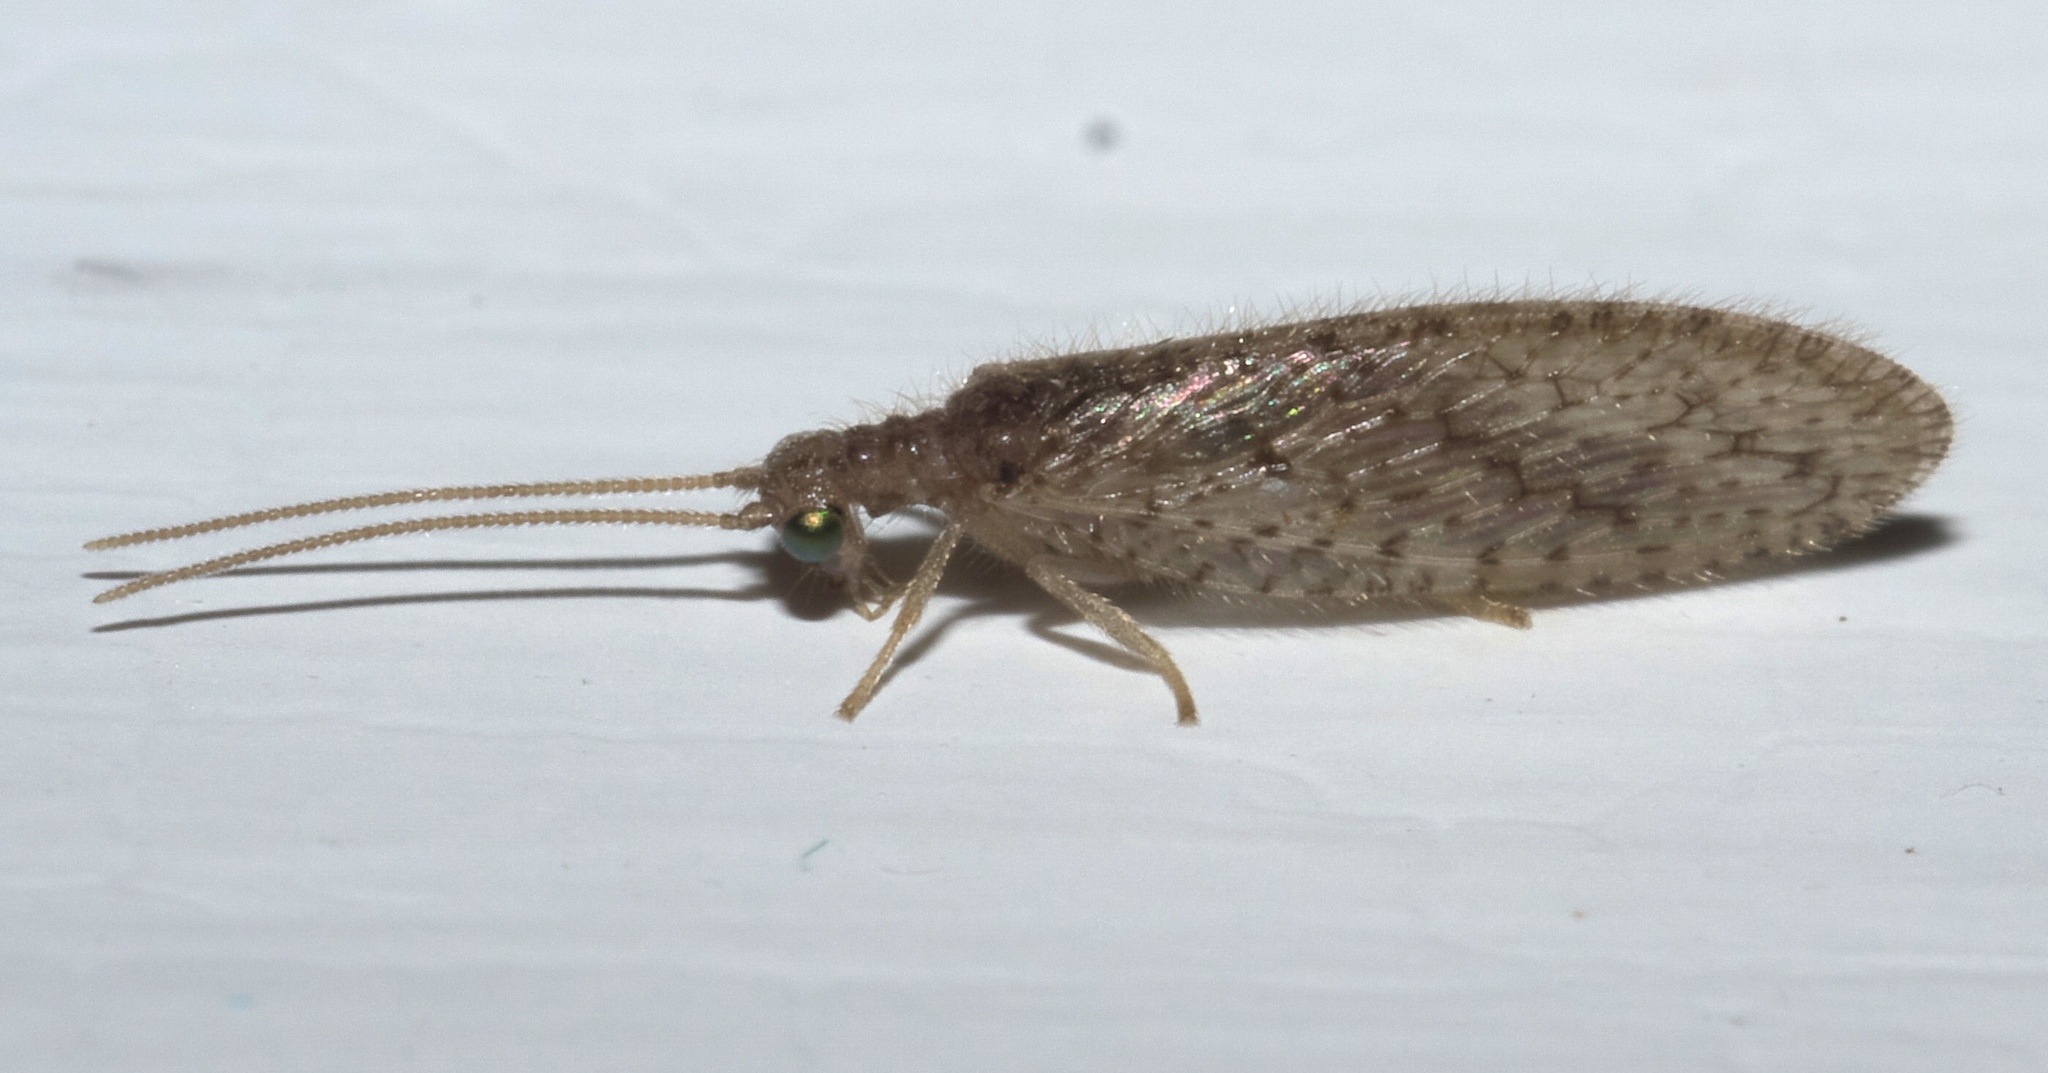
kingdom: Animalia
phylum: Arthropoda
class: Insecta
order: Neuroptera
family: Hemerobiidae
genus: Micromus
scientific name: Micromus tasmaniae
